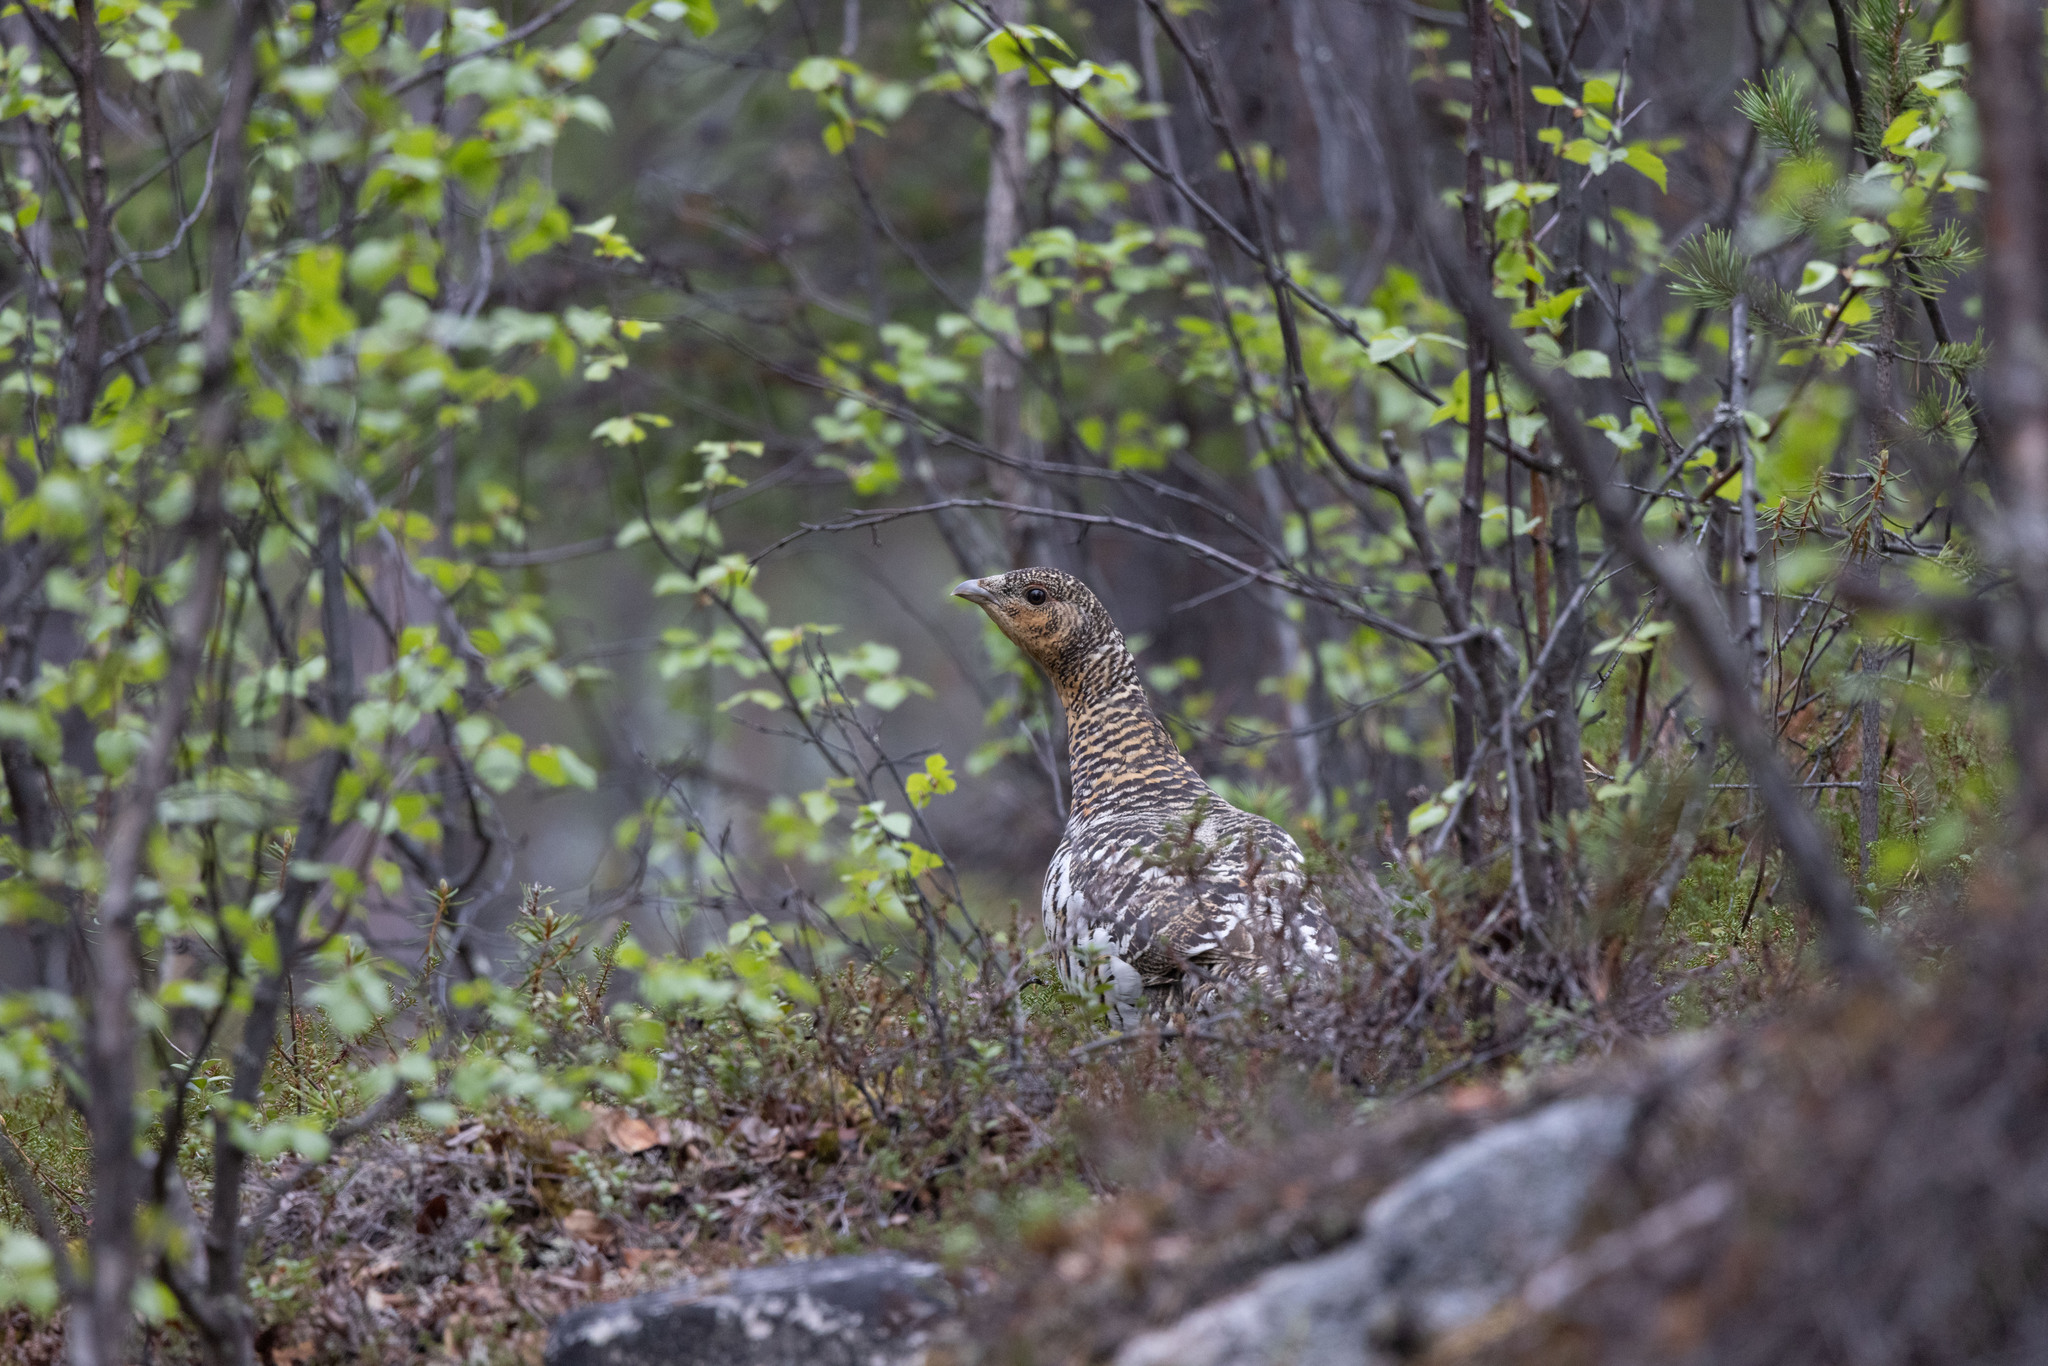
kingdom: Animalia
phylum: Chordata
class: Aves
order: Galliformes
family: Phasianidae
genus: Tetrao
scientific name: Tetrao urogallus
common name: Western capercaillie
